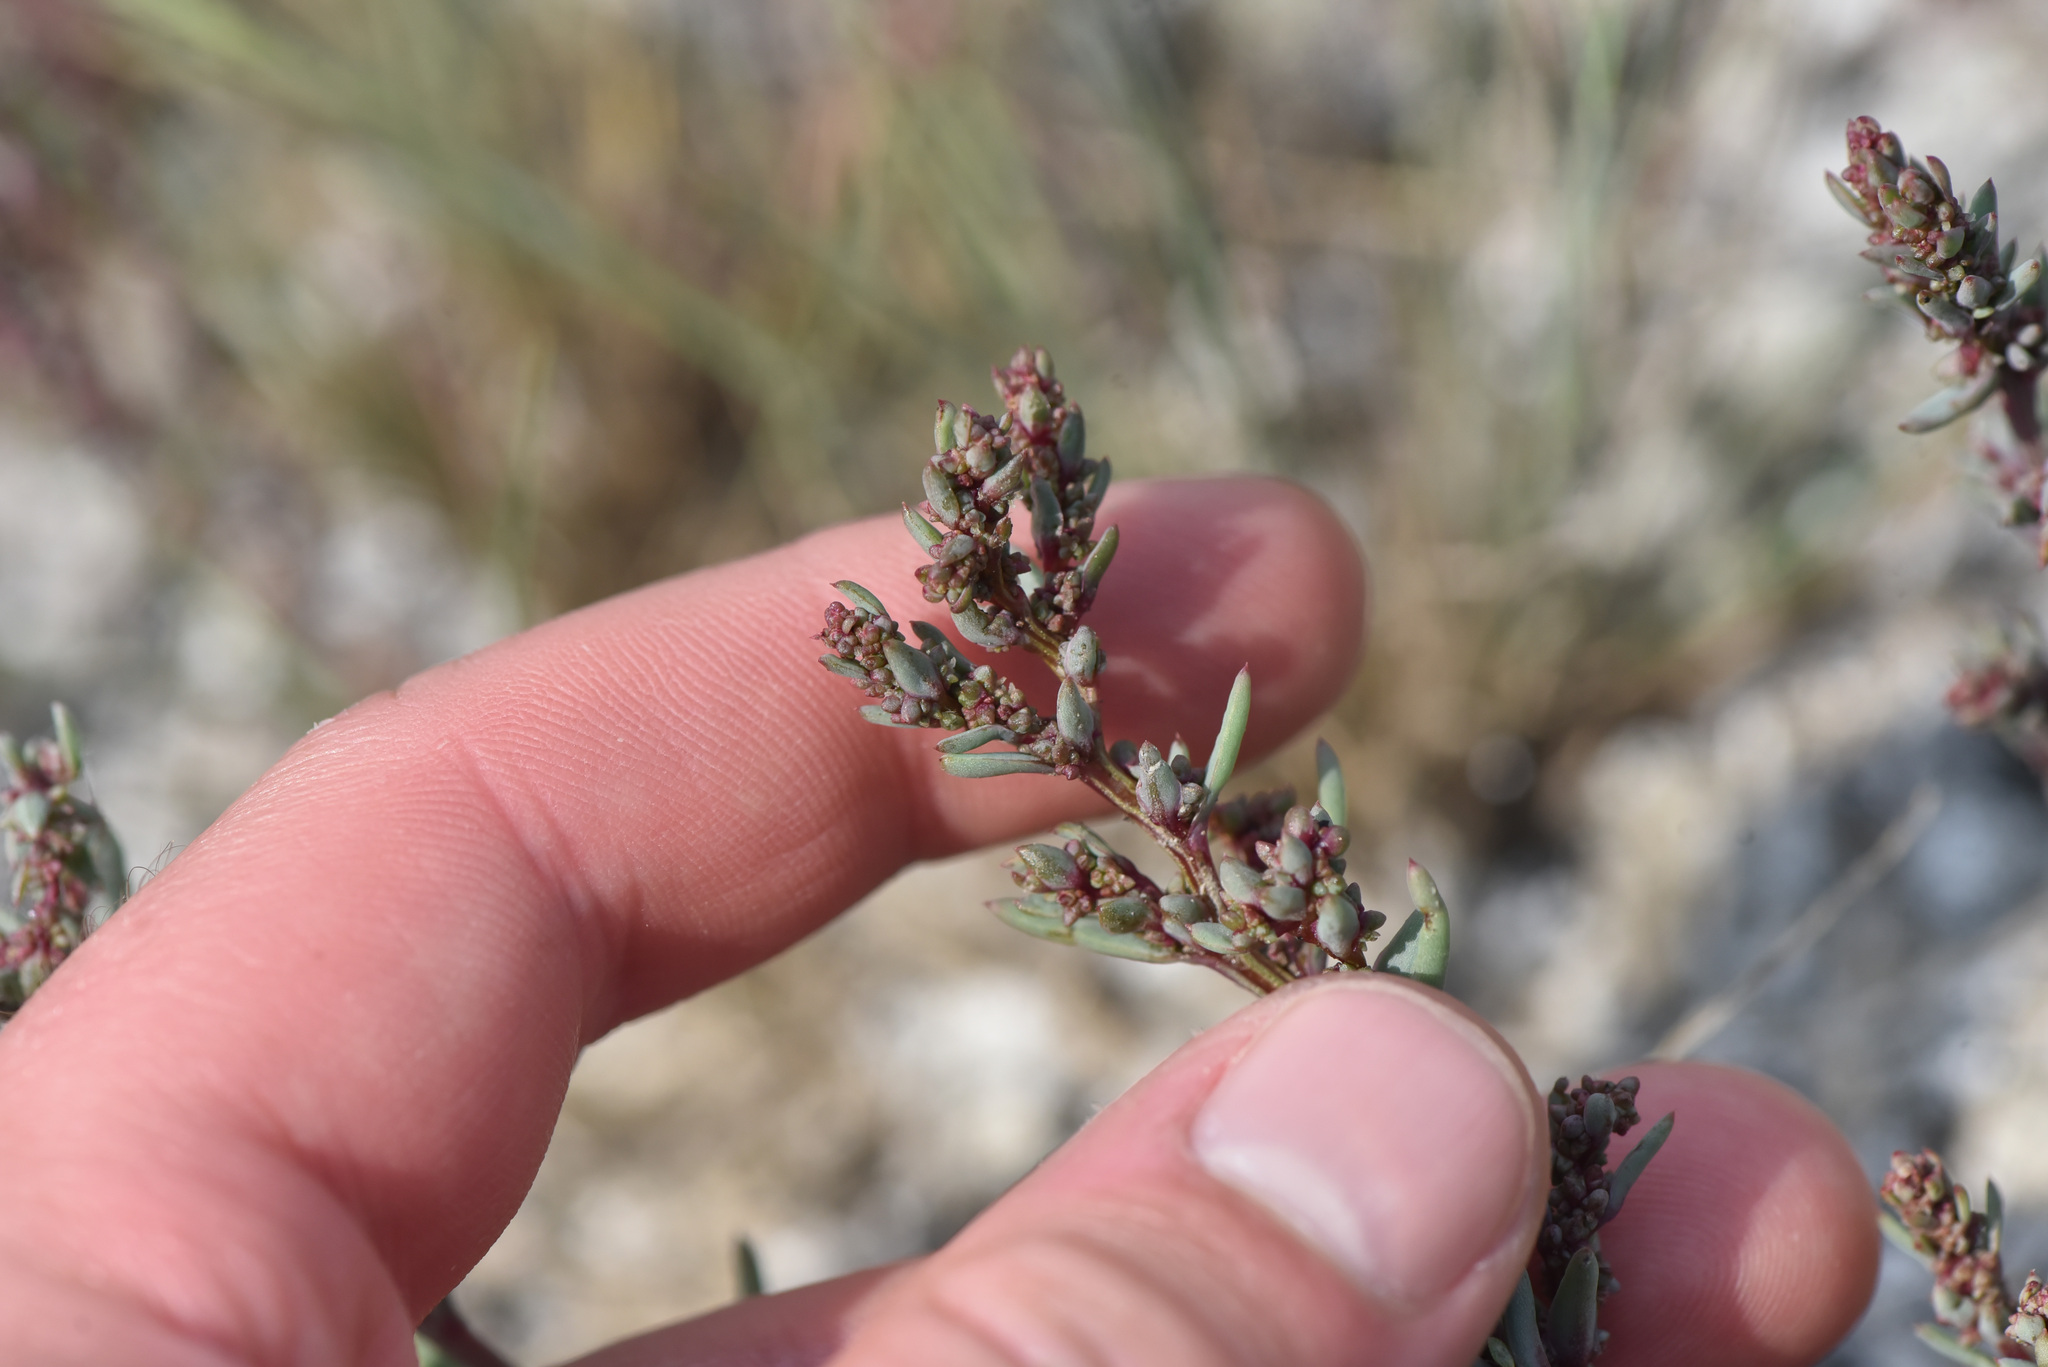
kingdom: Plantae
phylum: Tracheophyta
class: Magnoliopsida
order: Caryophyllales
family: Amaranthaceae
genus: Suaeda
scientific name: Suaeda calceoliformis
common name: Pursh's seepweed
